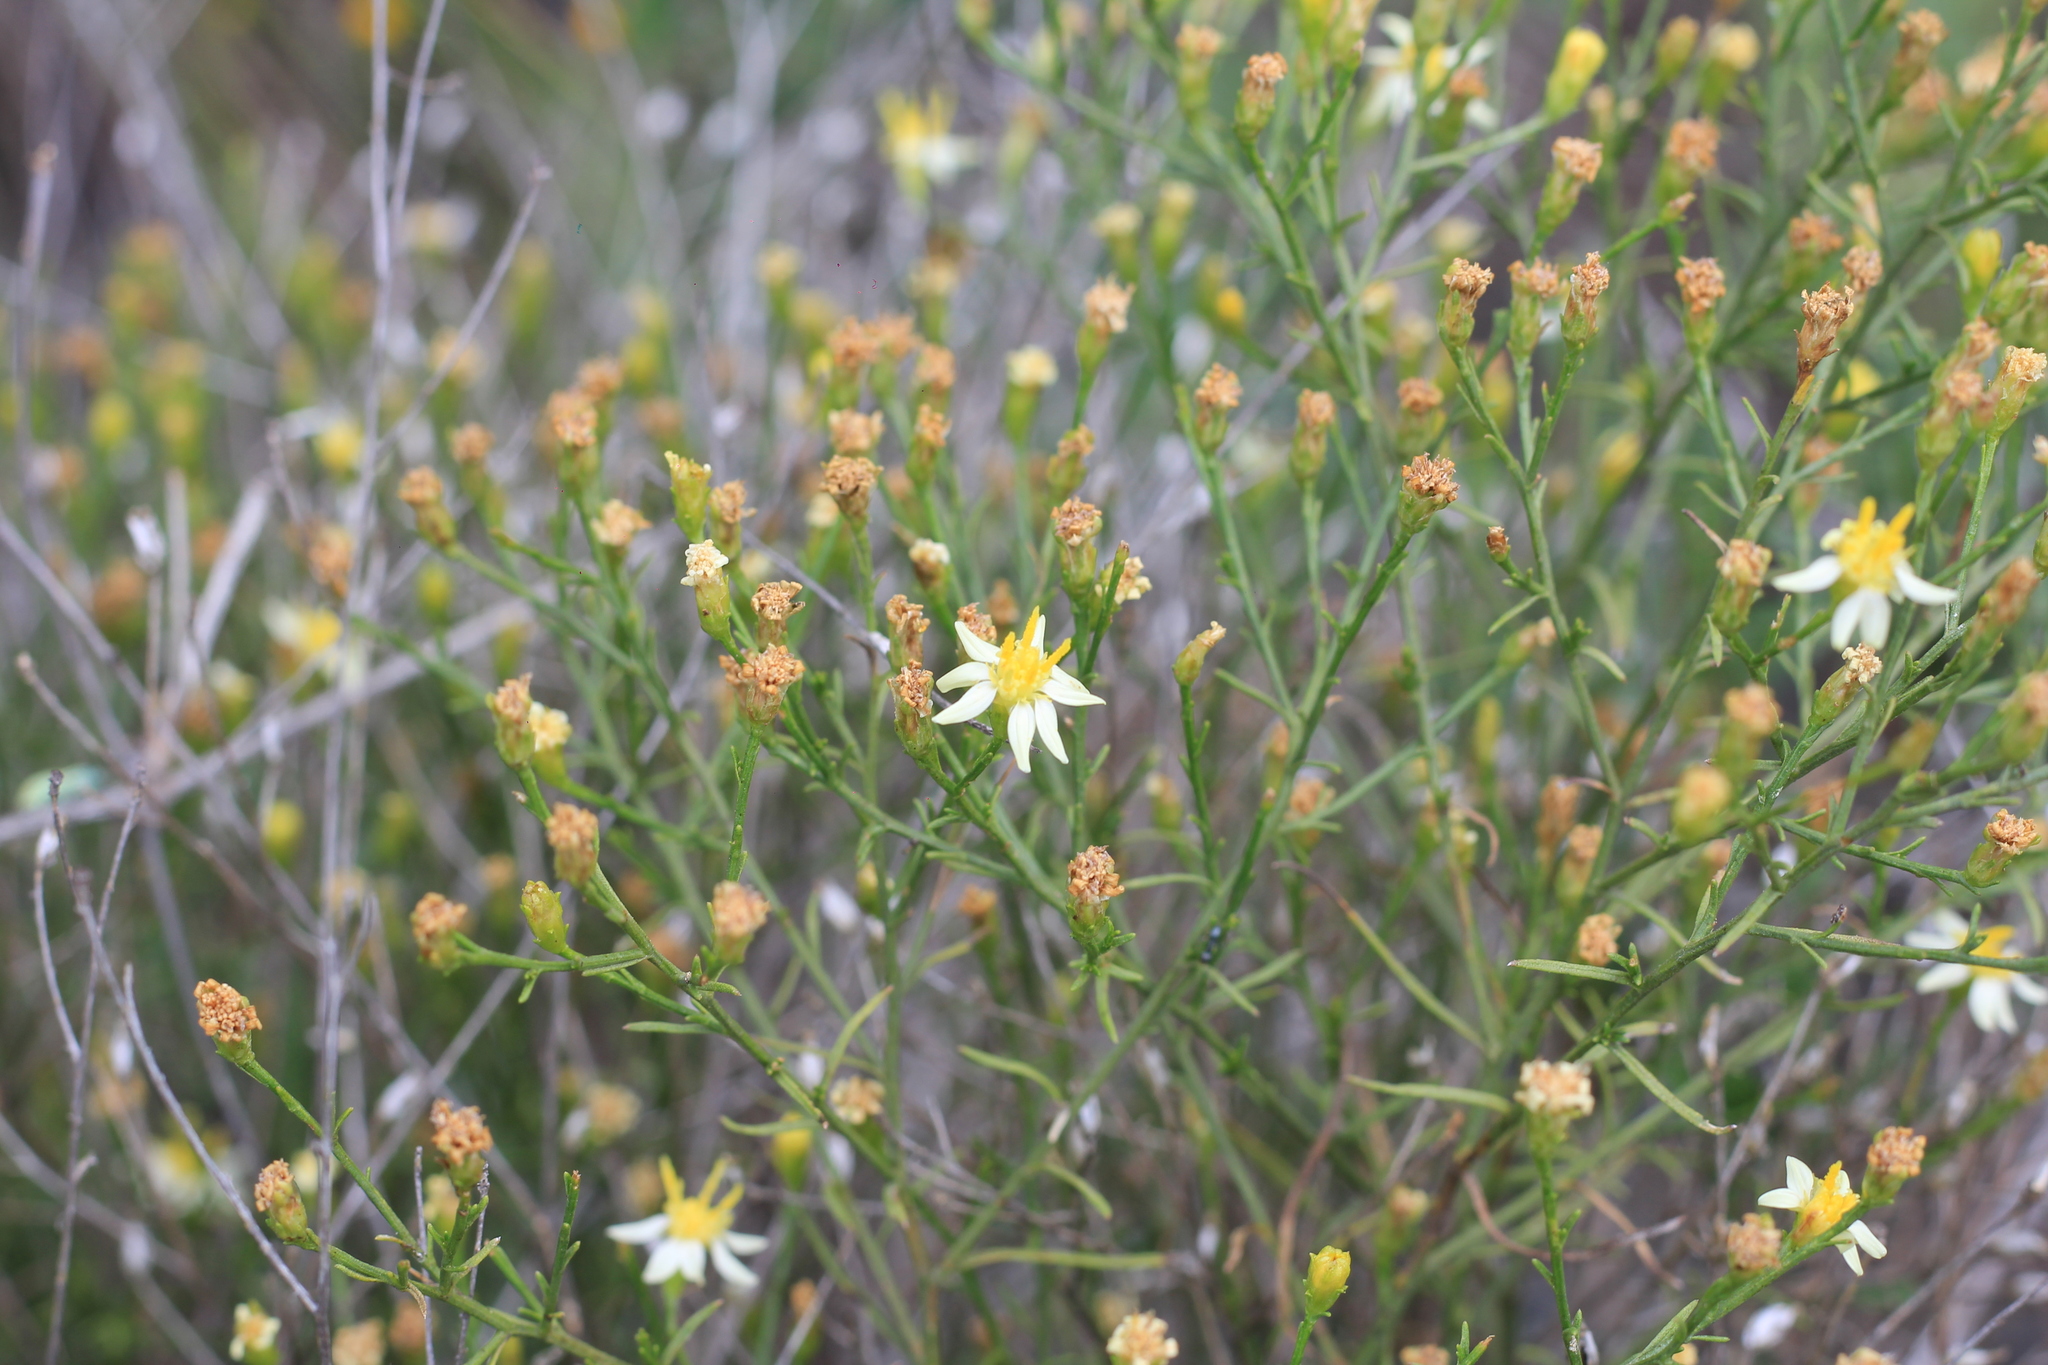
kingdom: Plantae
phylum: Tracheophyta
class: Magnoliopsida
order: Asterales
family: Asteraceae
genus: Gutierrezia
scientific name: Gutierrezia isernii
